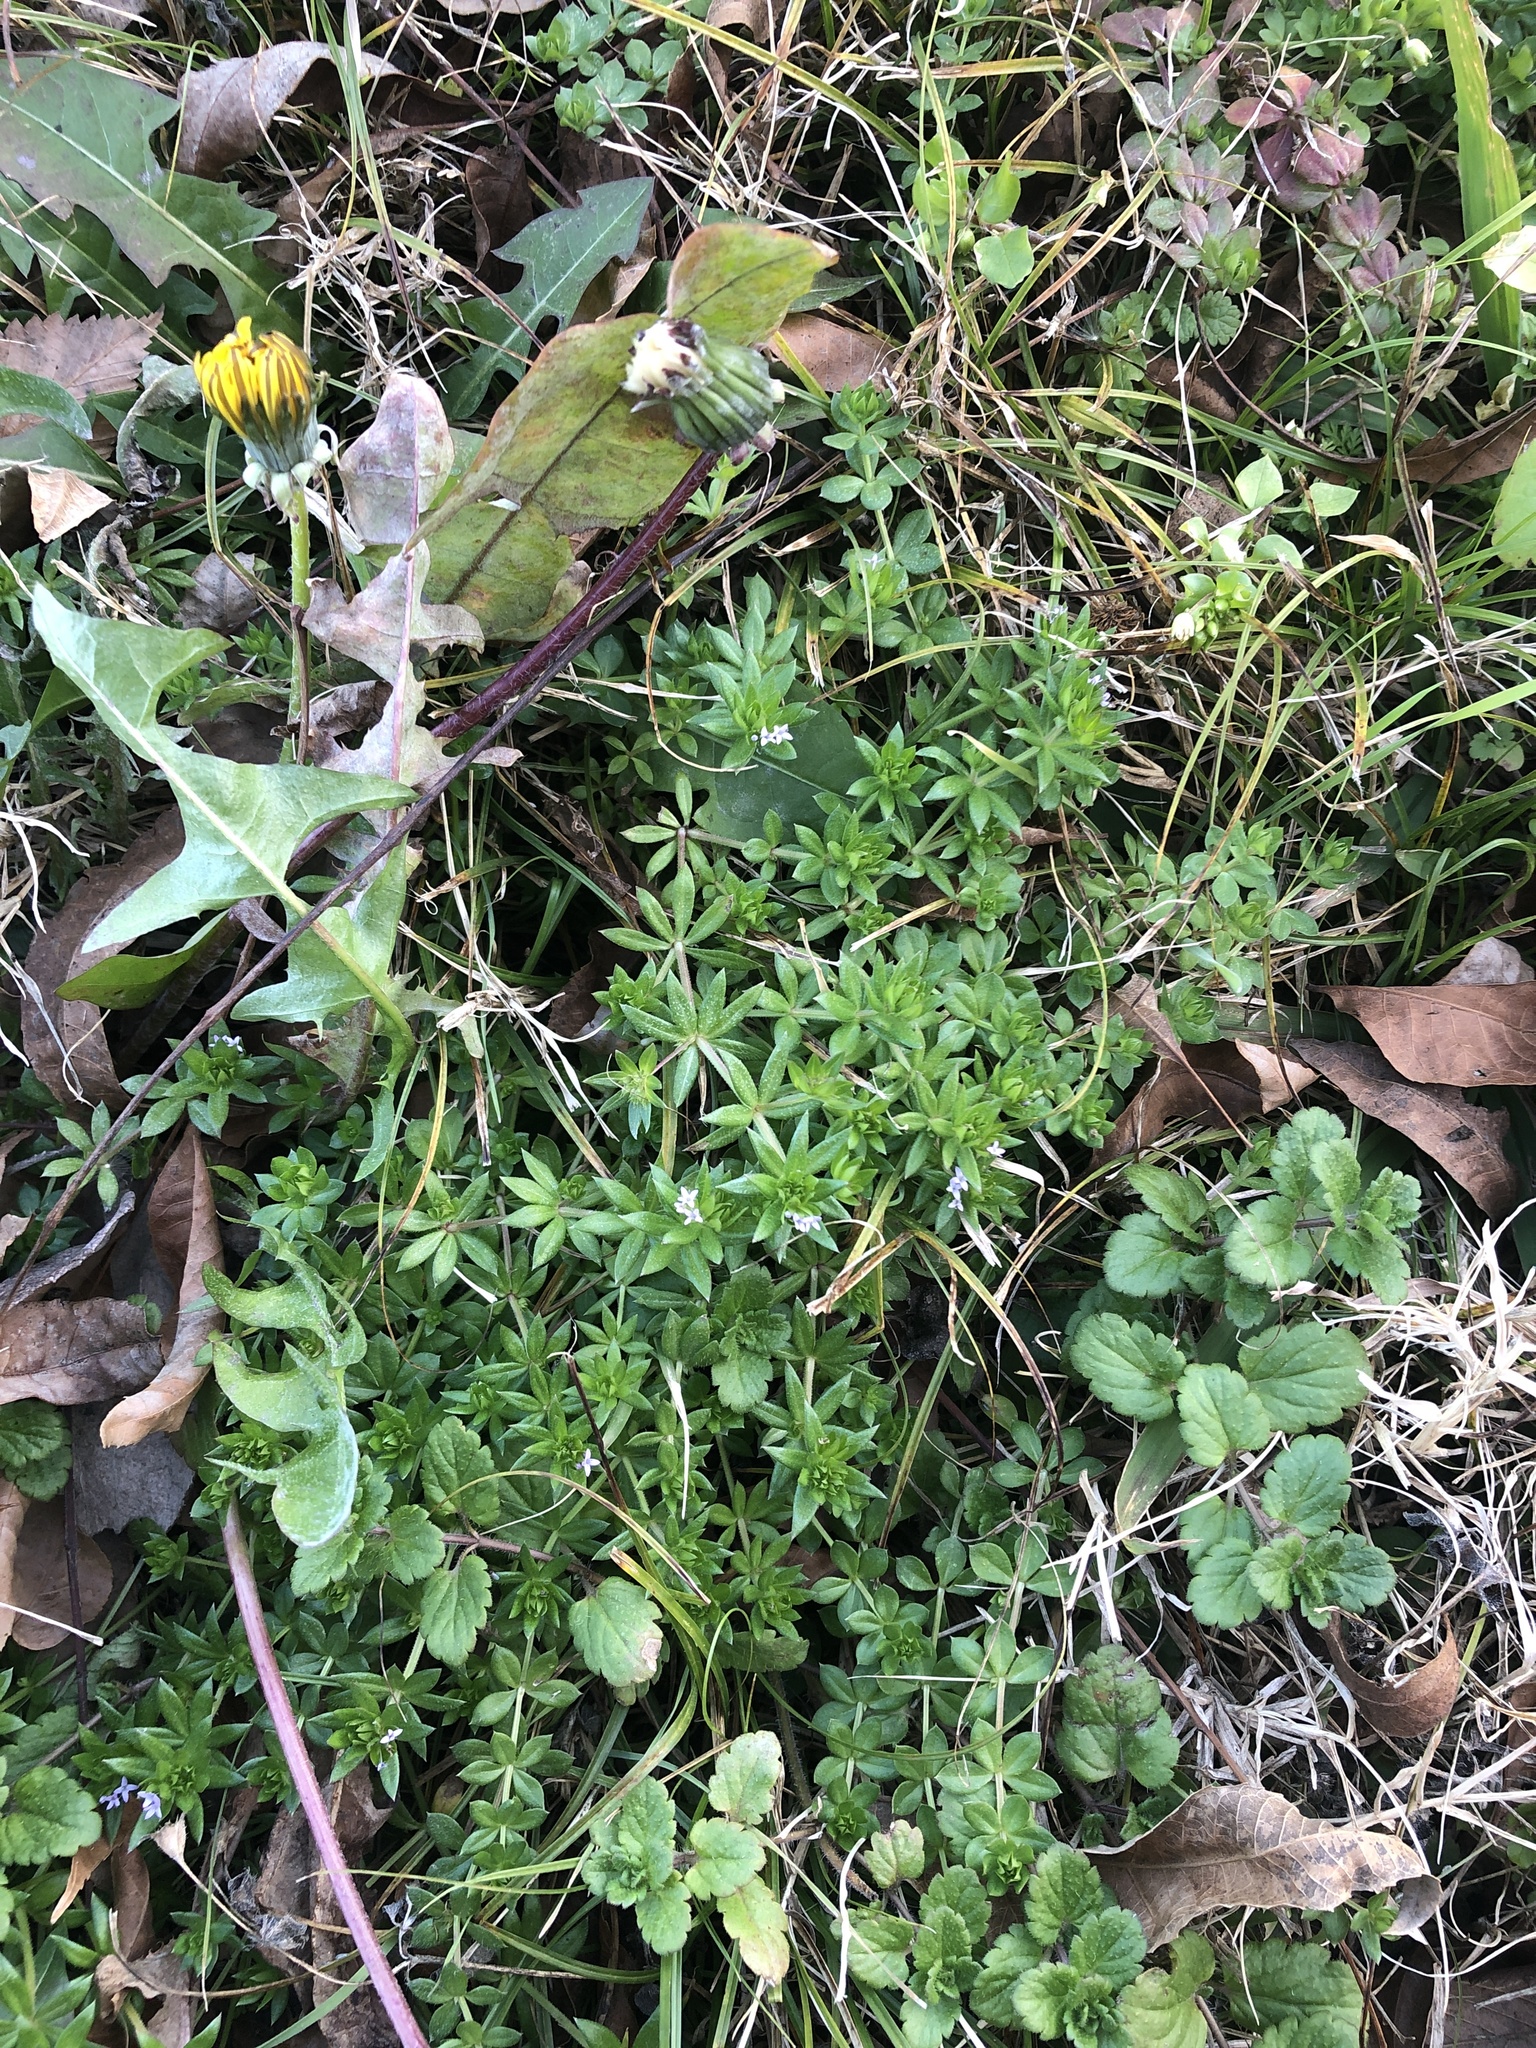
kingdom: Plantae
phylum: Tracheophyta
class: Magnoliopsida
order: Gentianales
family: Rubiaceae
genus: Sherardia
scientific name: Sherardia arvensis
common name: Field madder
